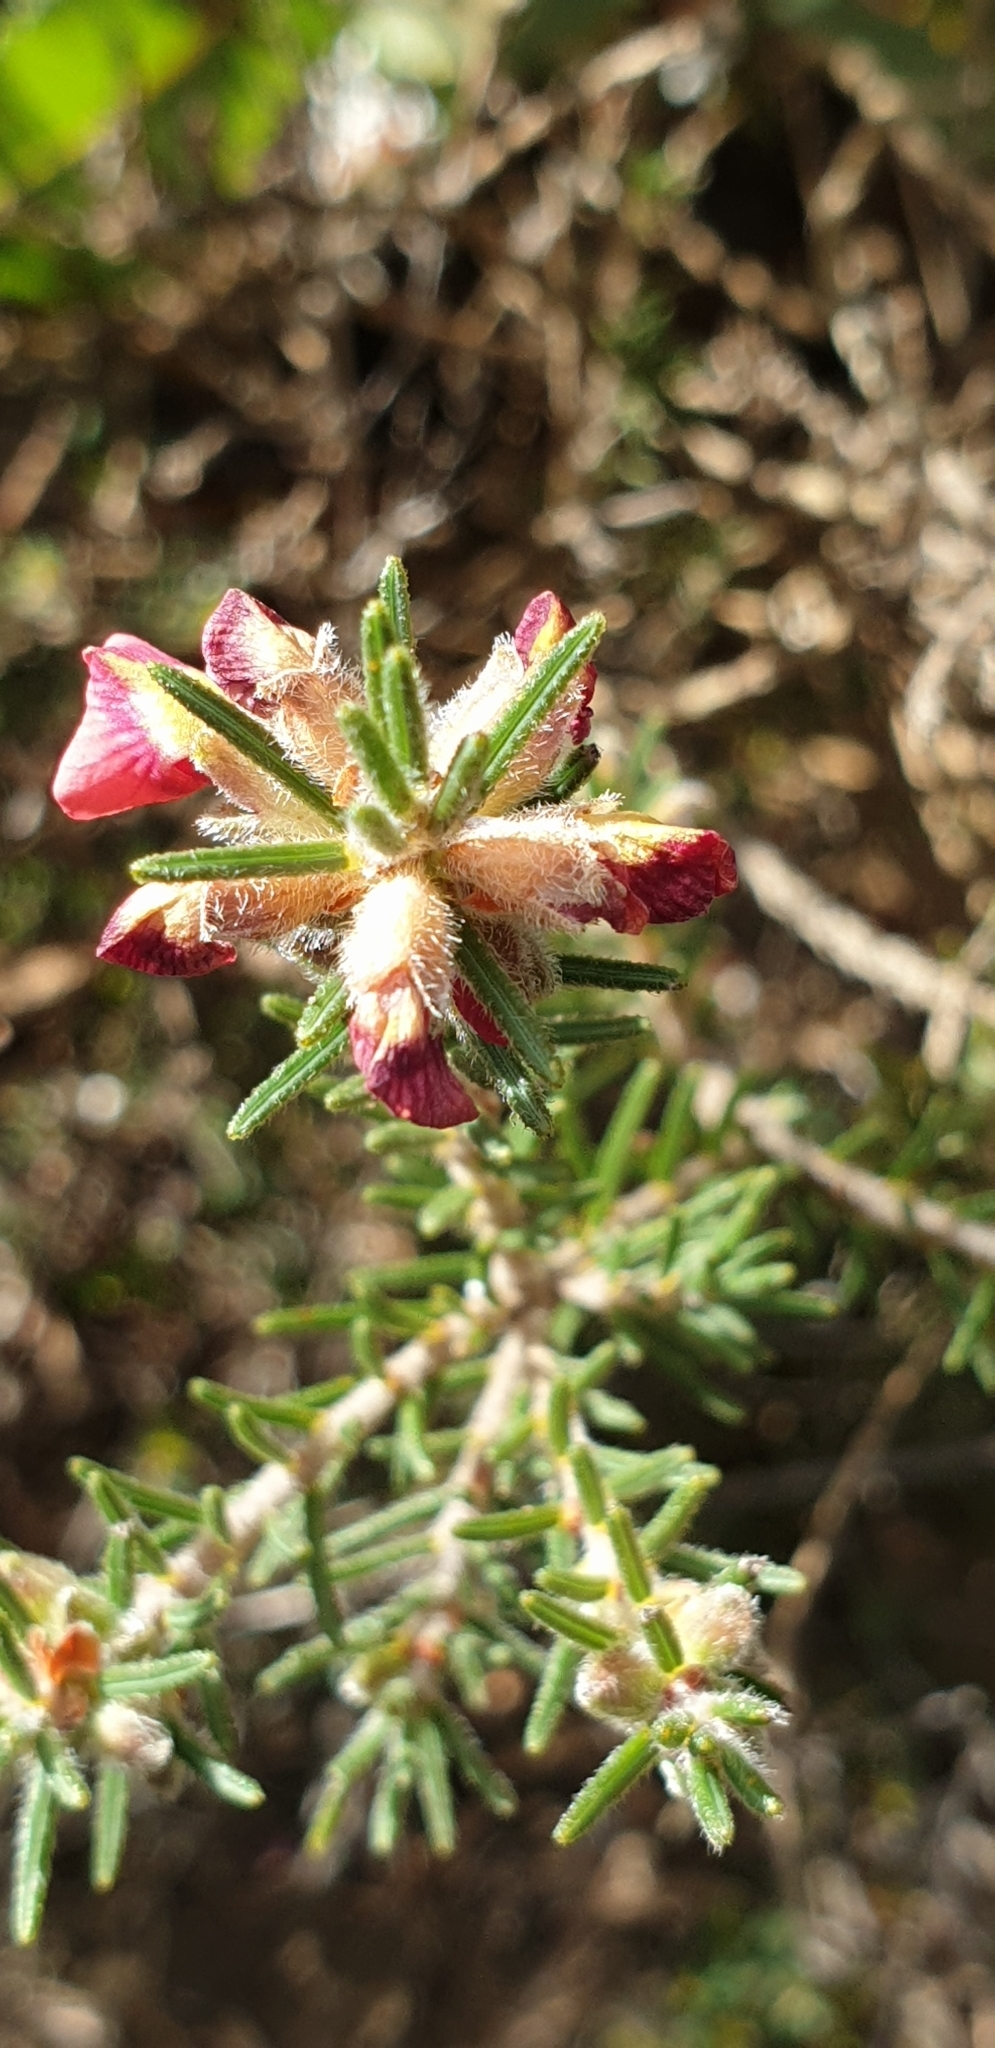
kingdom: Plantae
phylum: Tracheophyta
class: Magnoliopsida
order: Fabales
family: Fabaceae
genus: Dillwynia
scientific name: Dillwynia sericea
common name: Showy parrot-pea
